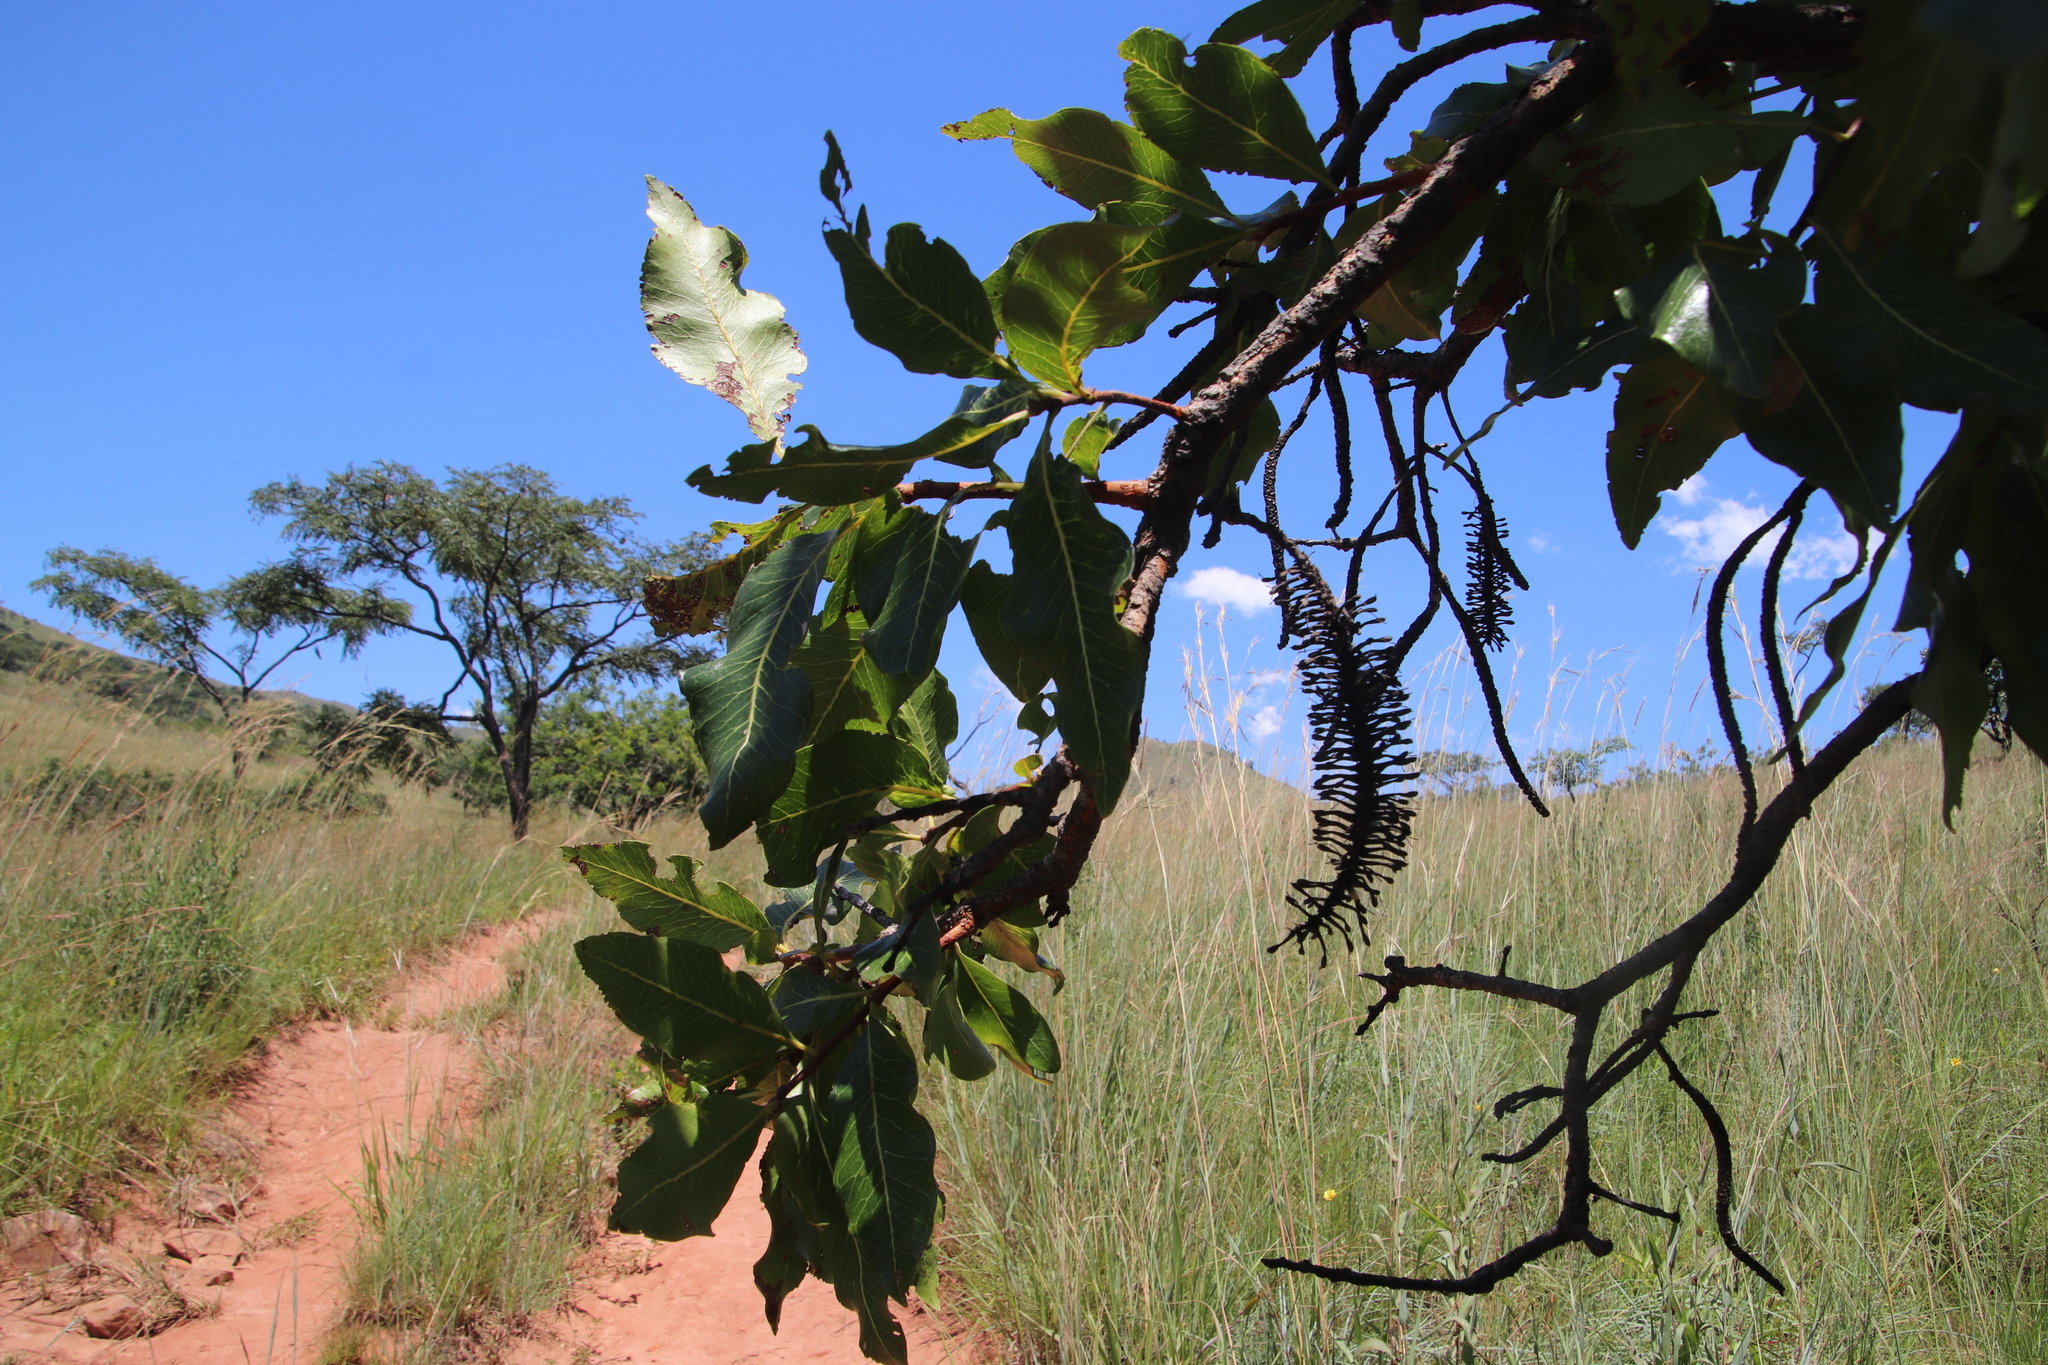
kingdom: Plantae
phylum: Tracheophyta
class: Magnoliopsida
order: Proteales
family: Proteaceae
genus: Faurea
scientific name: Faurea rochetiana
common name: Broad-leaved beech
